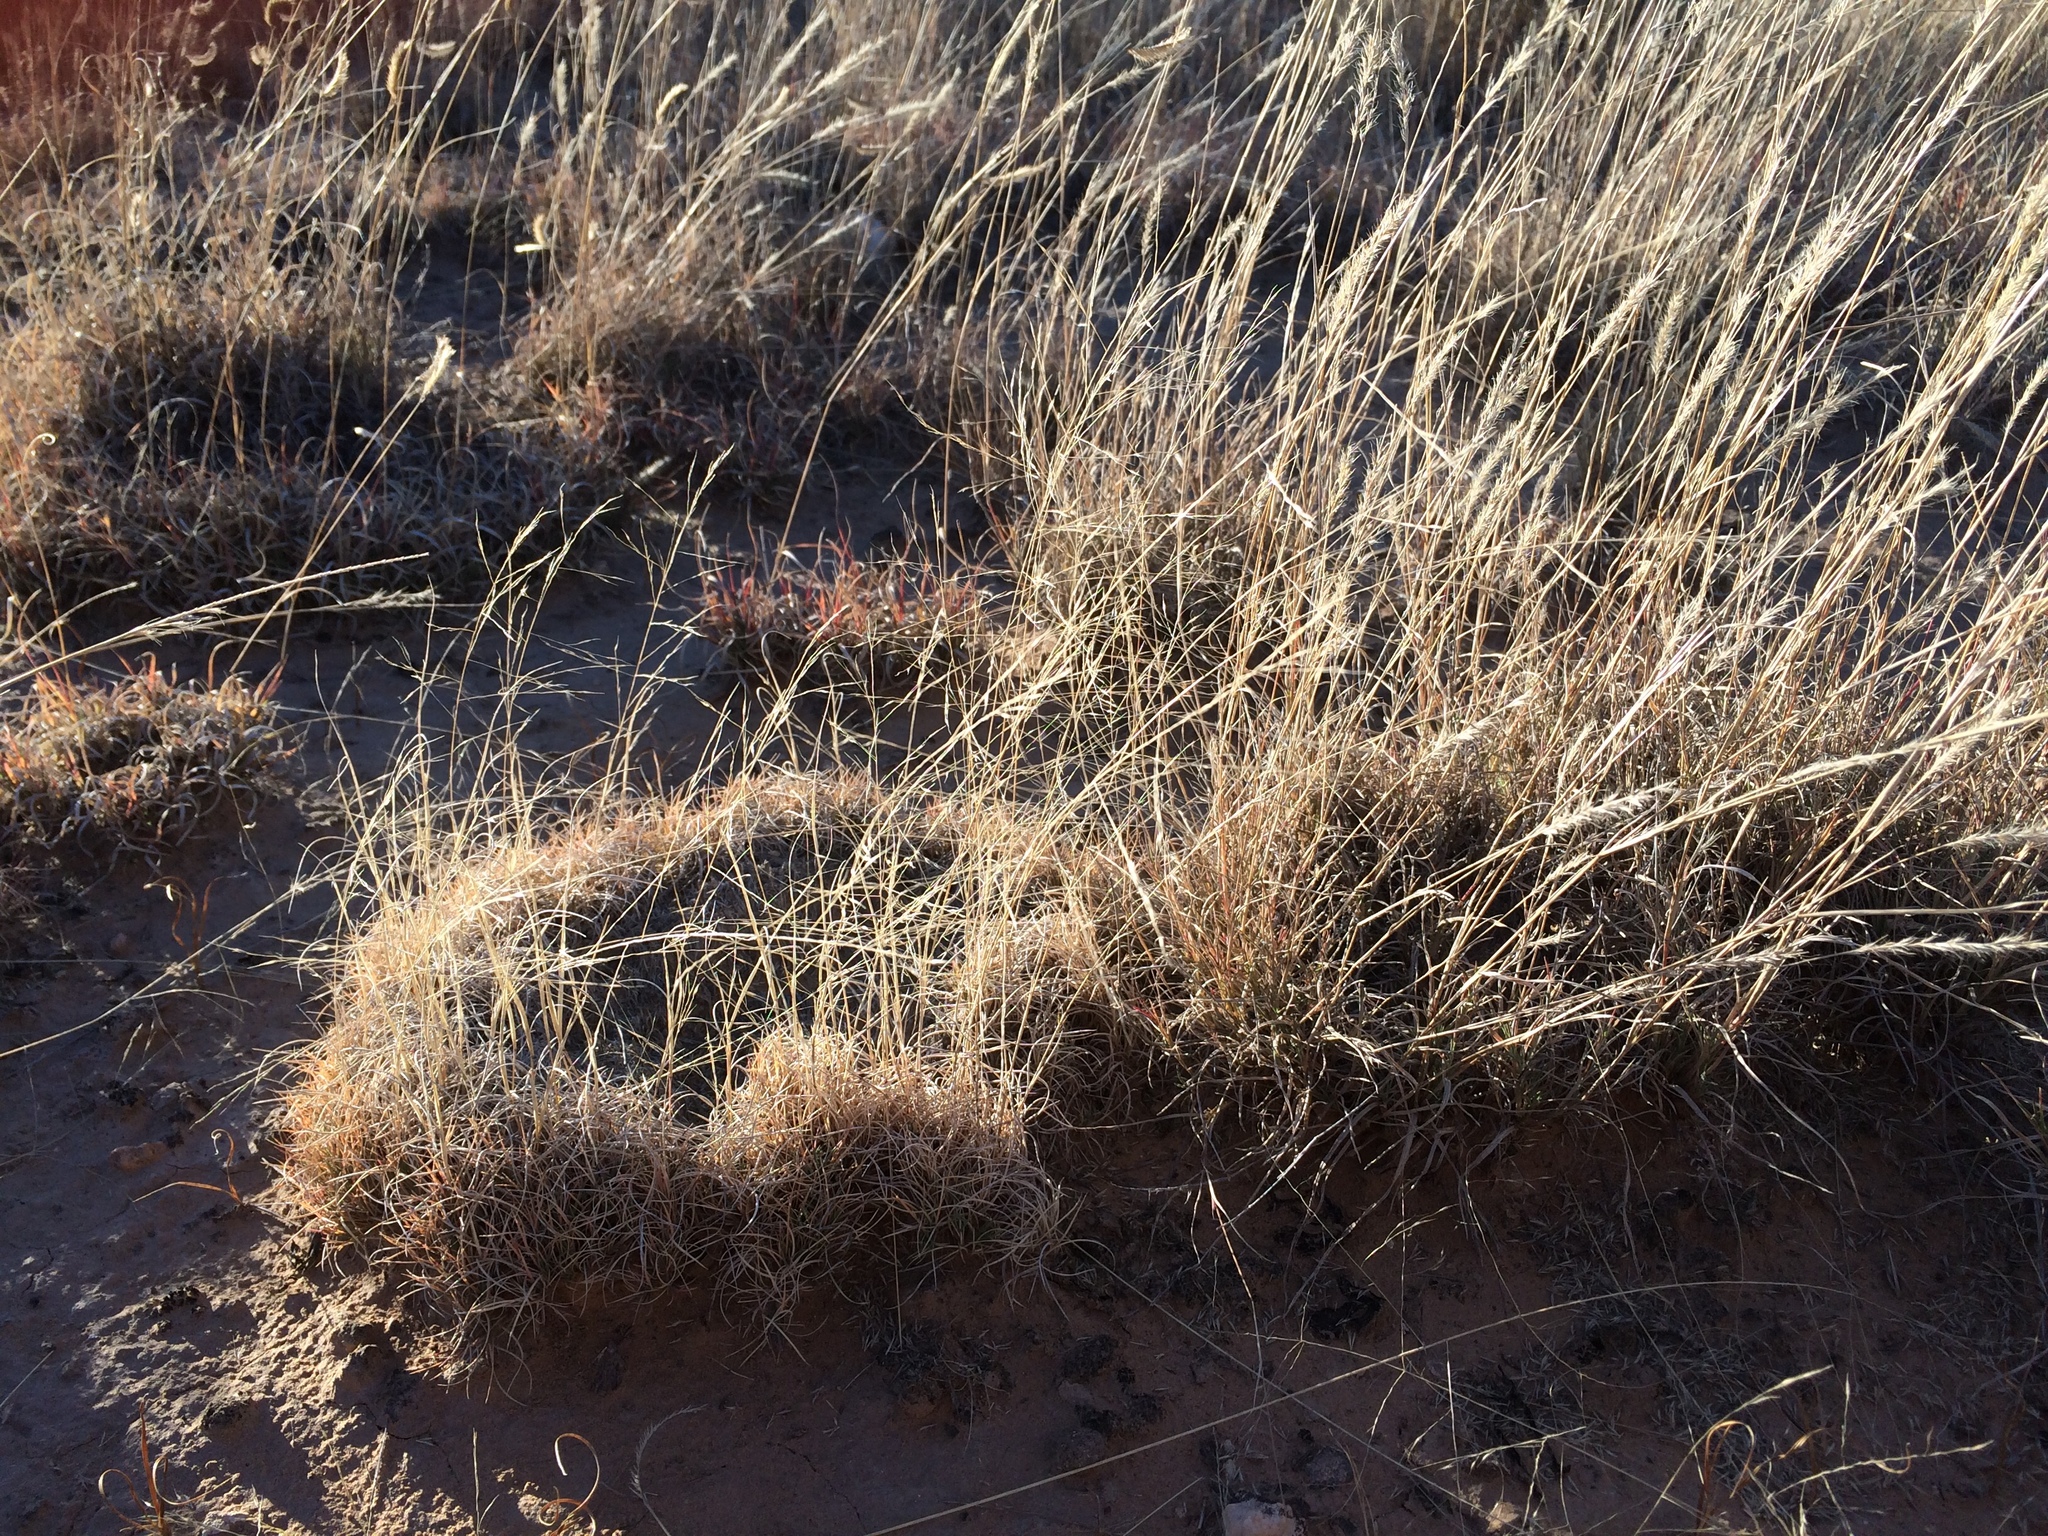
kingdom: Plantae
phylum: Tracheophyta
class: Liliopsida
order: Poales
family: Poaceae
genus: Muhlenbergia
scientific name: Muhlenbergia torreyi
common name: Ring grass
